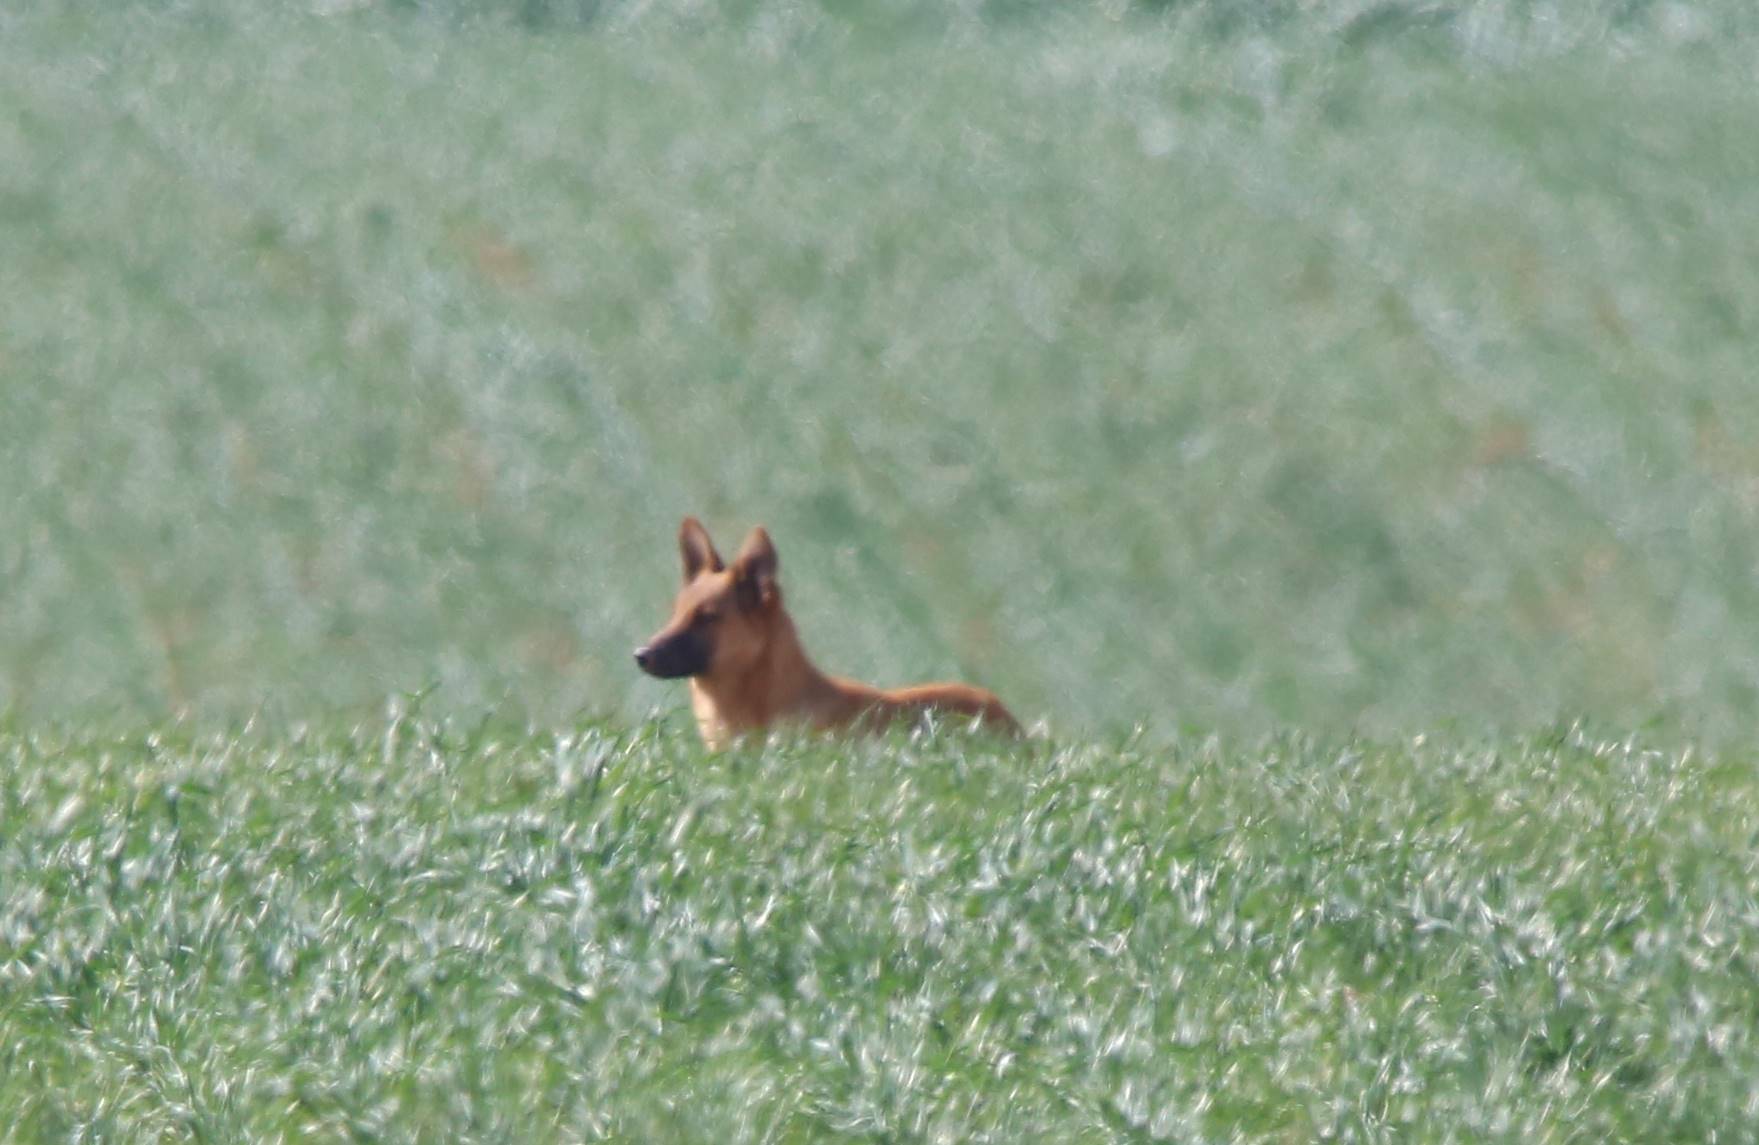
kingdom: Animalia
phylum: Chordata
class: Mammalia
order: Carnivora
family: Canidae
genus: Canis
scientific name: Canis lupus
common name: Gray wolf
